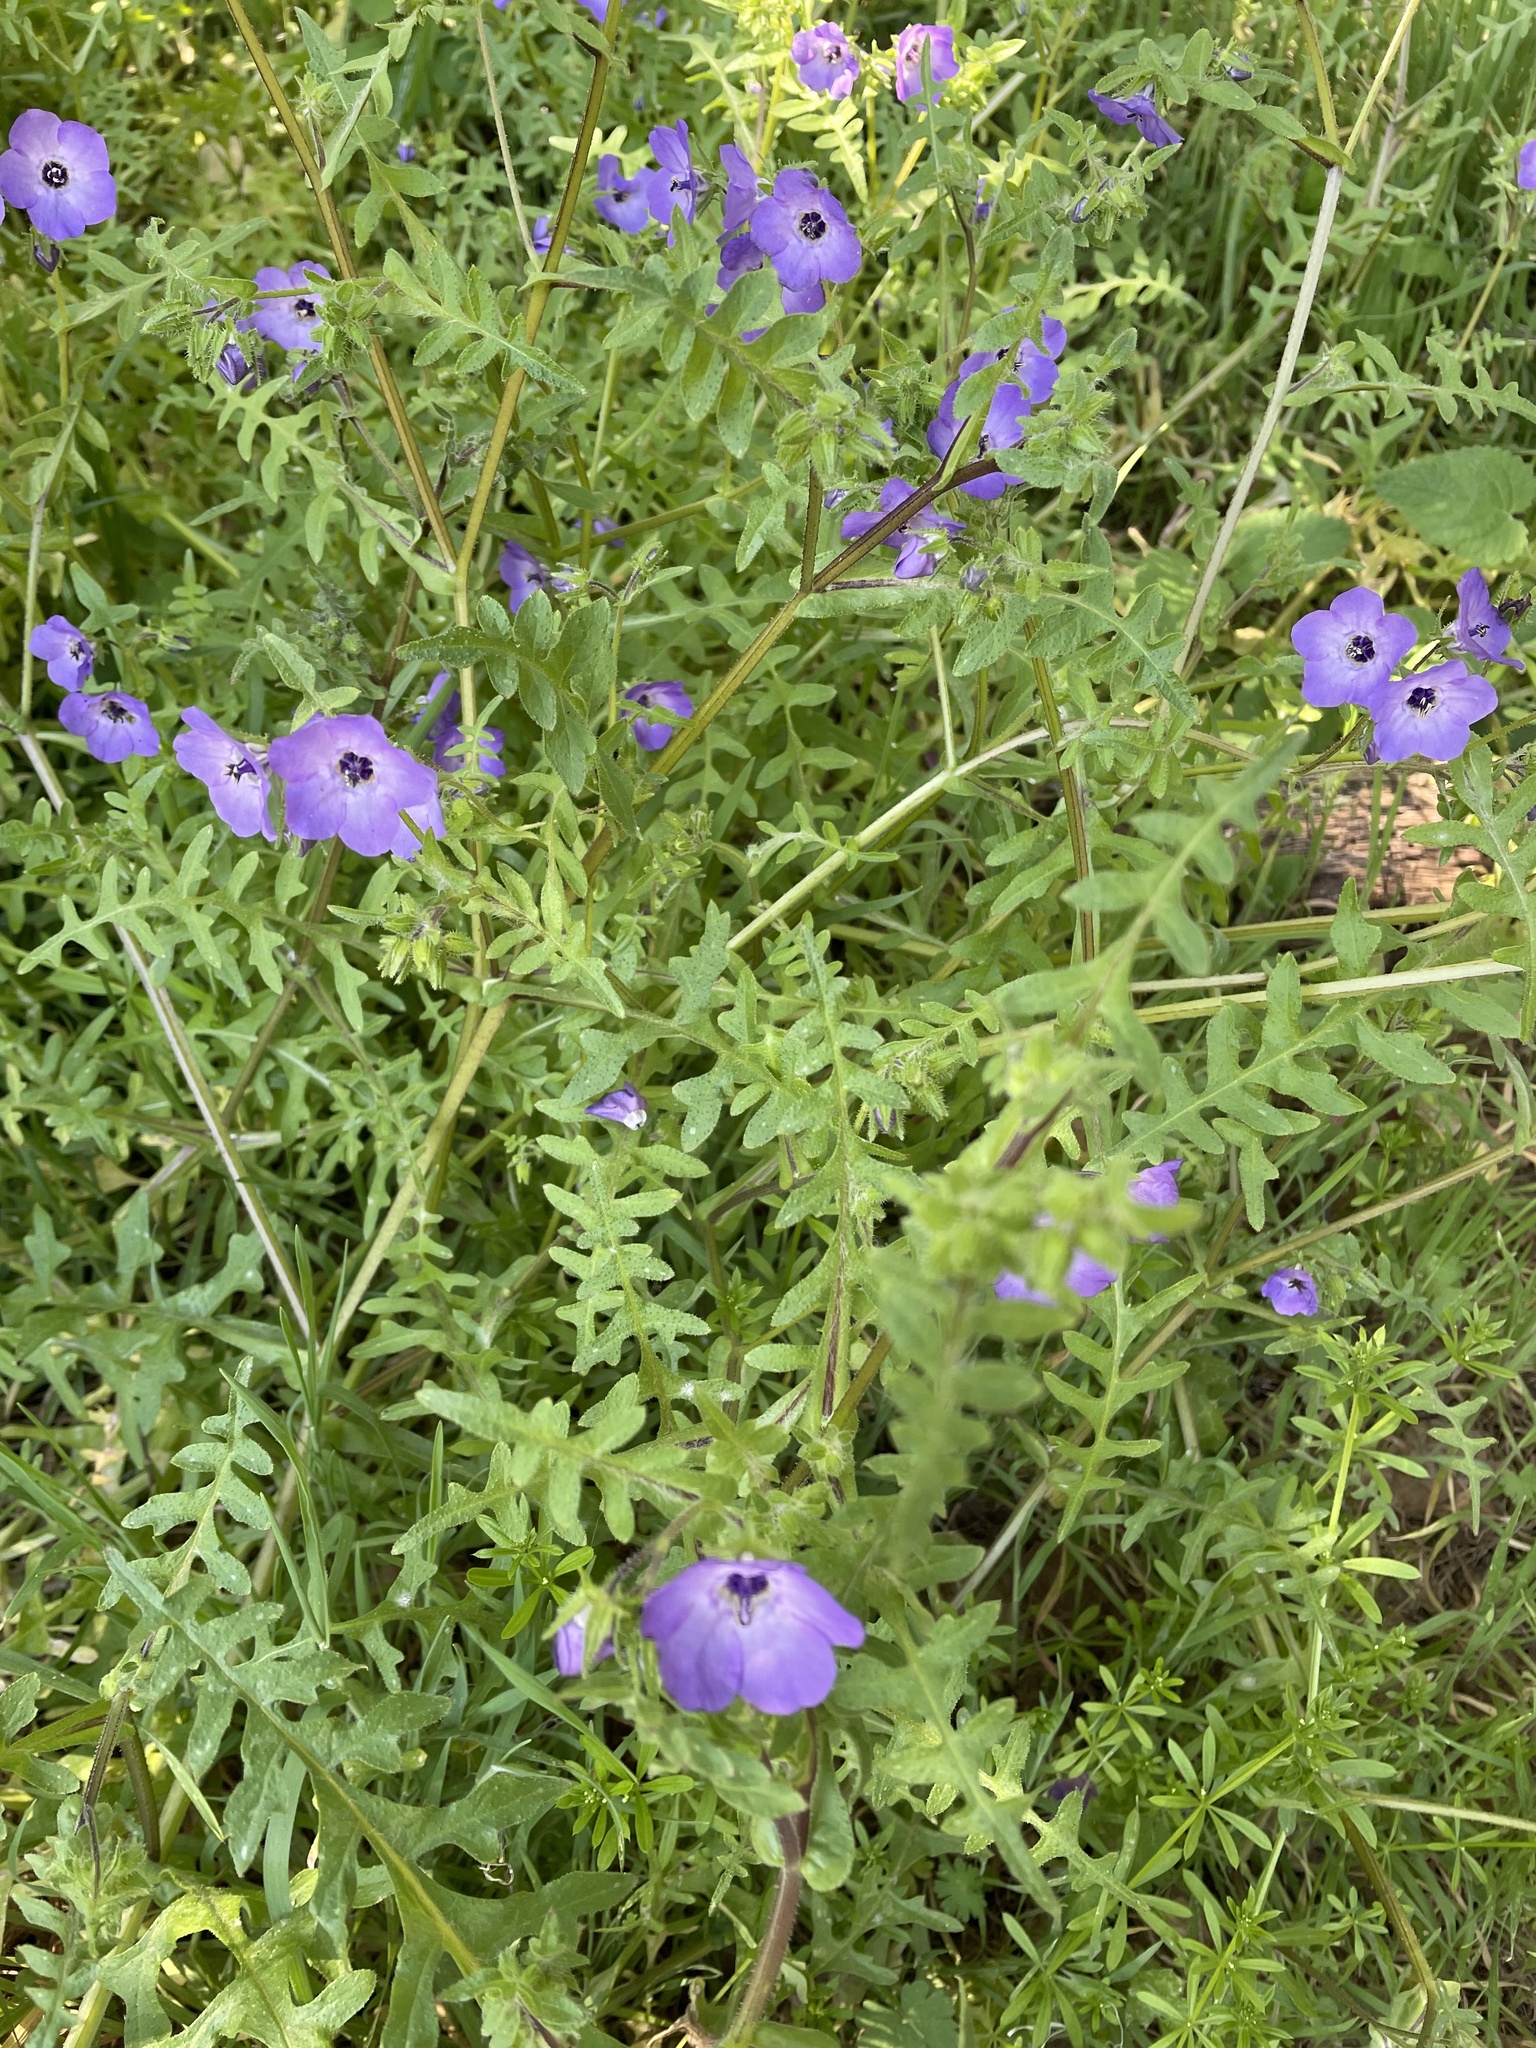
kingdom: Plantae
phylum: Tracheophyta
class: Magnoliopsida
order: Boraginales
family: Hydrophyllaceae
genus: Pholistoma
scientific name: Pholistoma auritum
